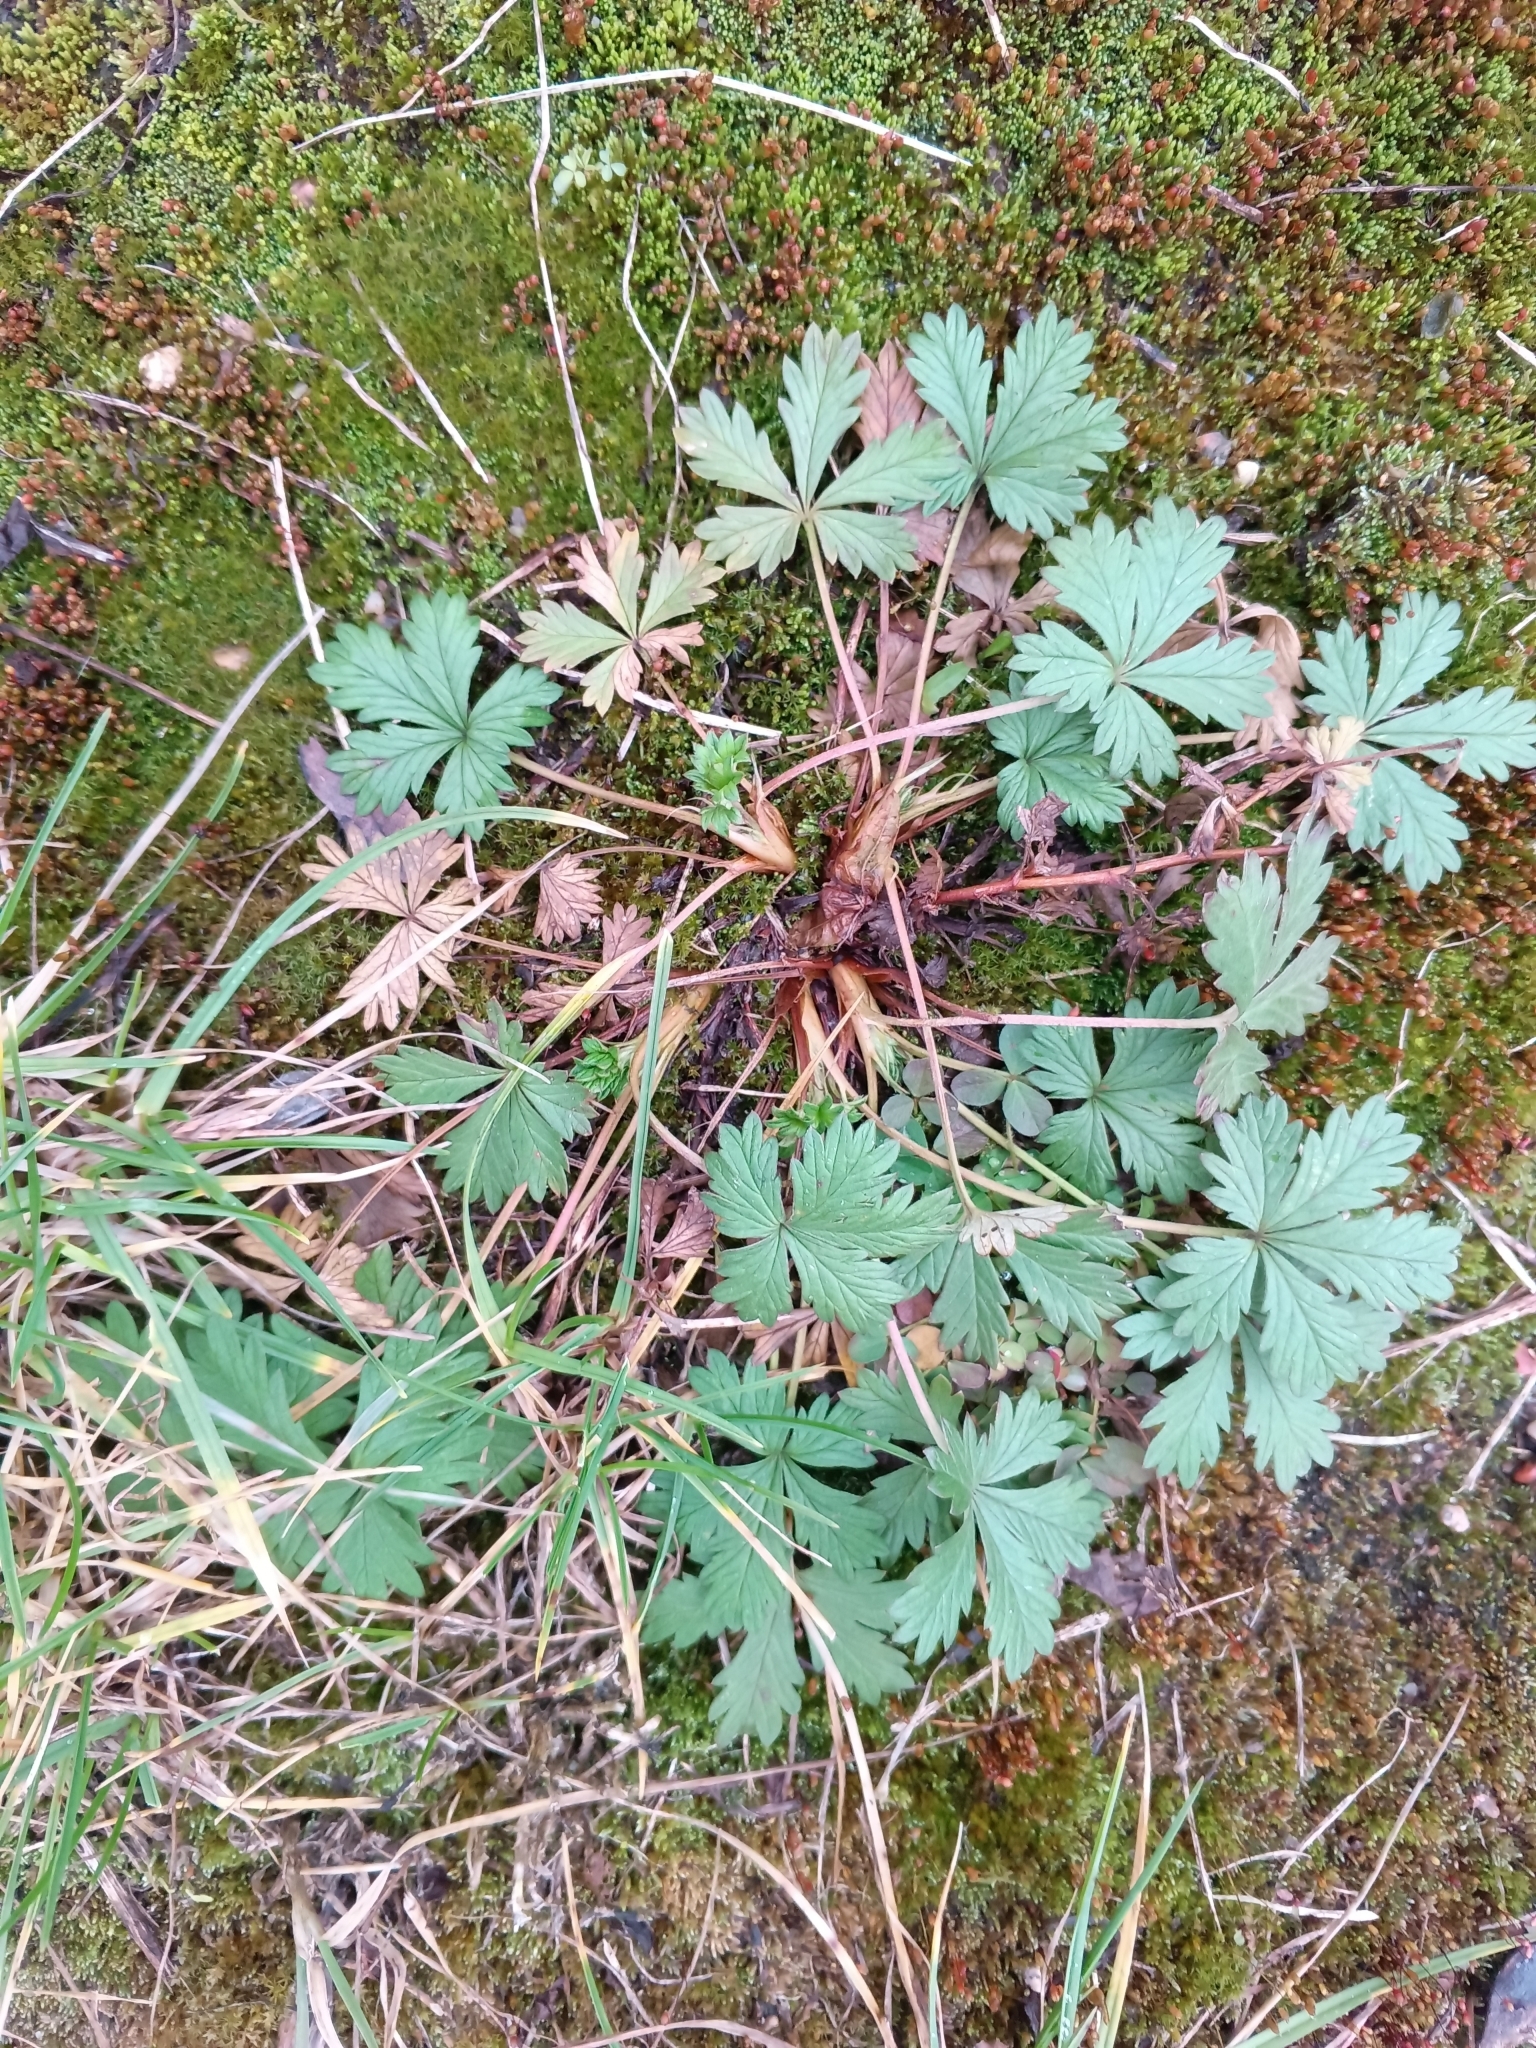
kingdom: Plantae
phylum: Tracheophyta
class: Magnoliopsida
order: Rosales
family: Rosaceae
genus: Potentilla
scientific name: Potentilla argentea
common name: Hoary cinquefoil
